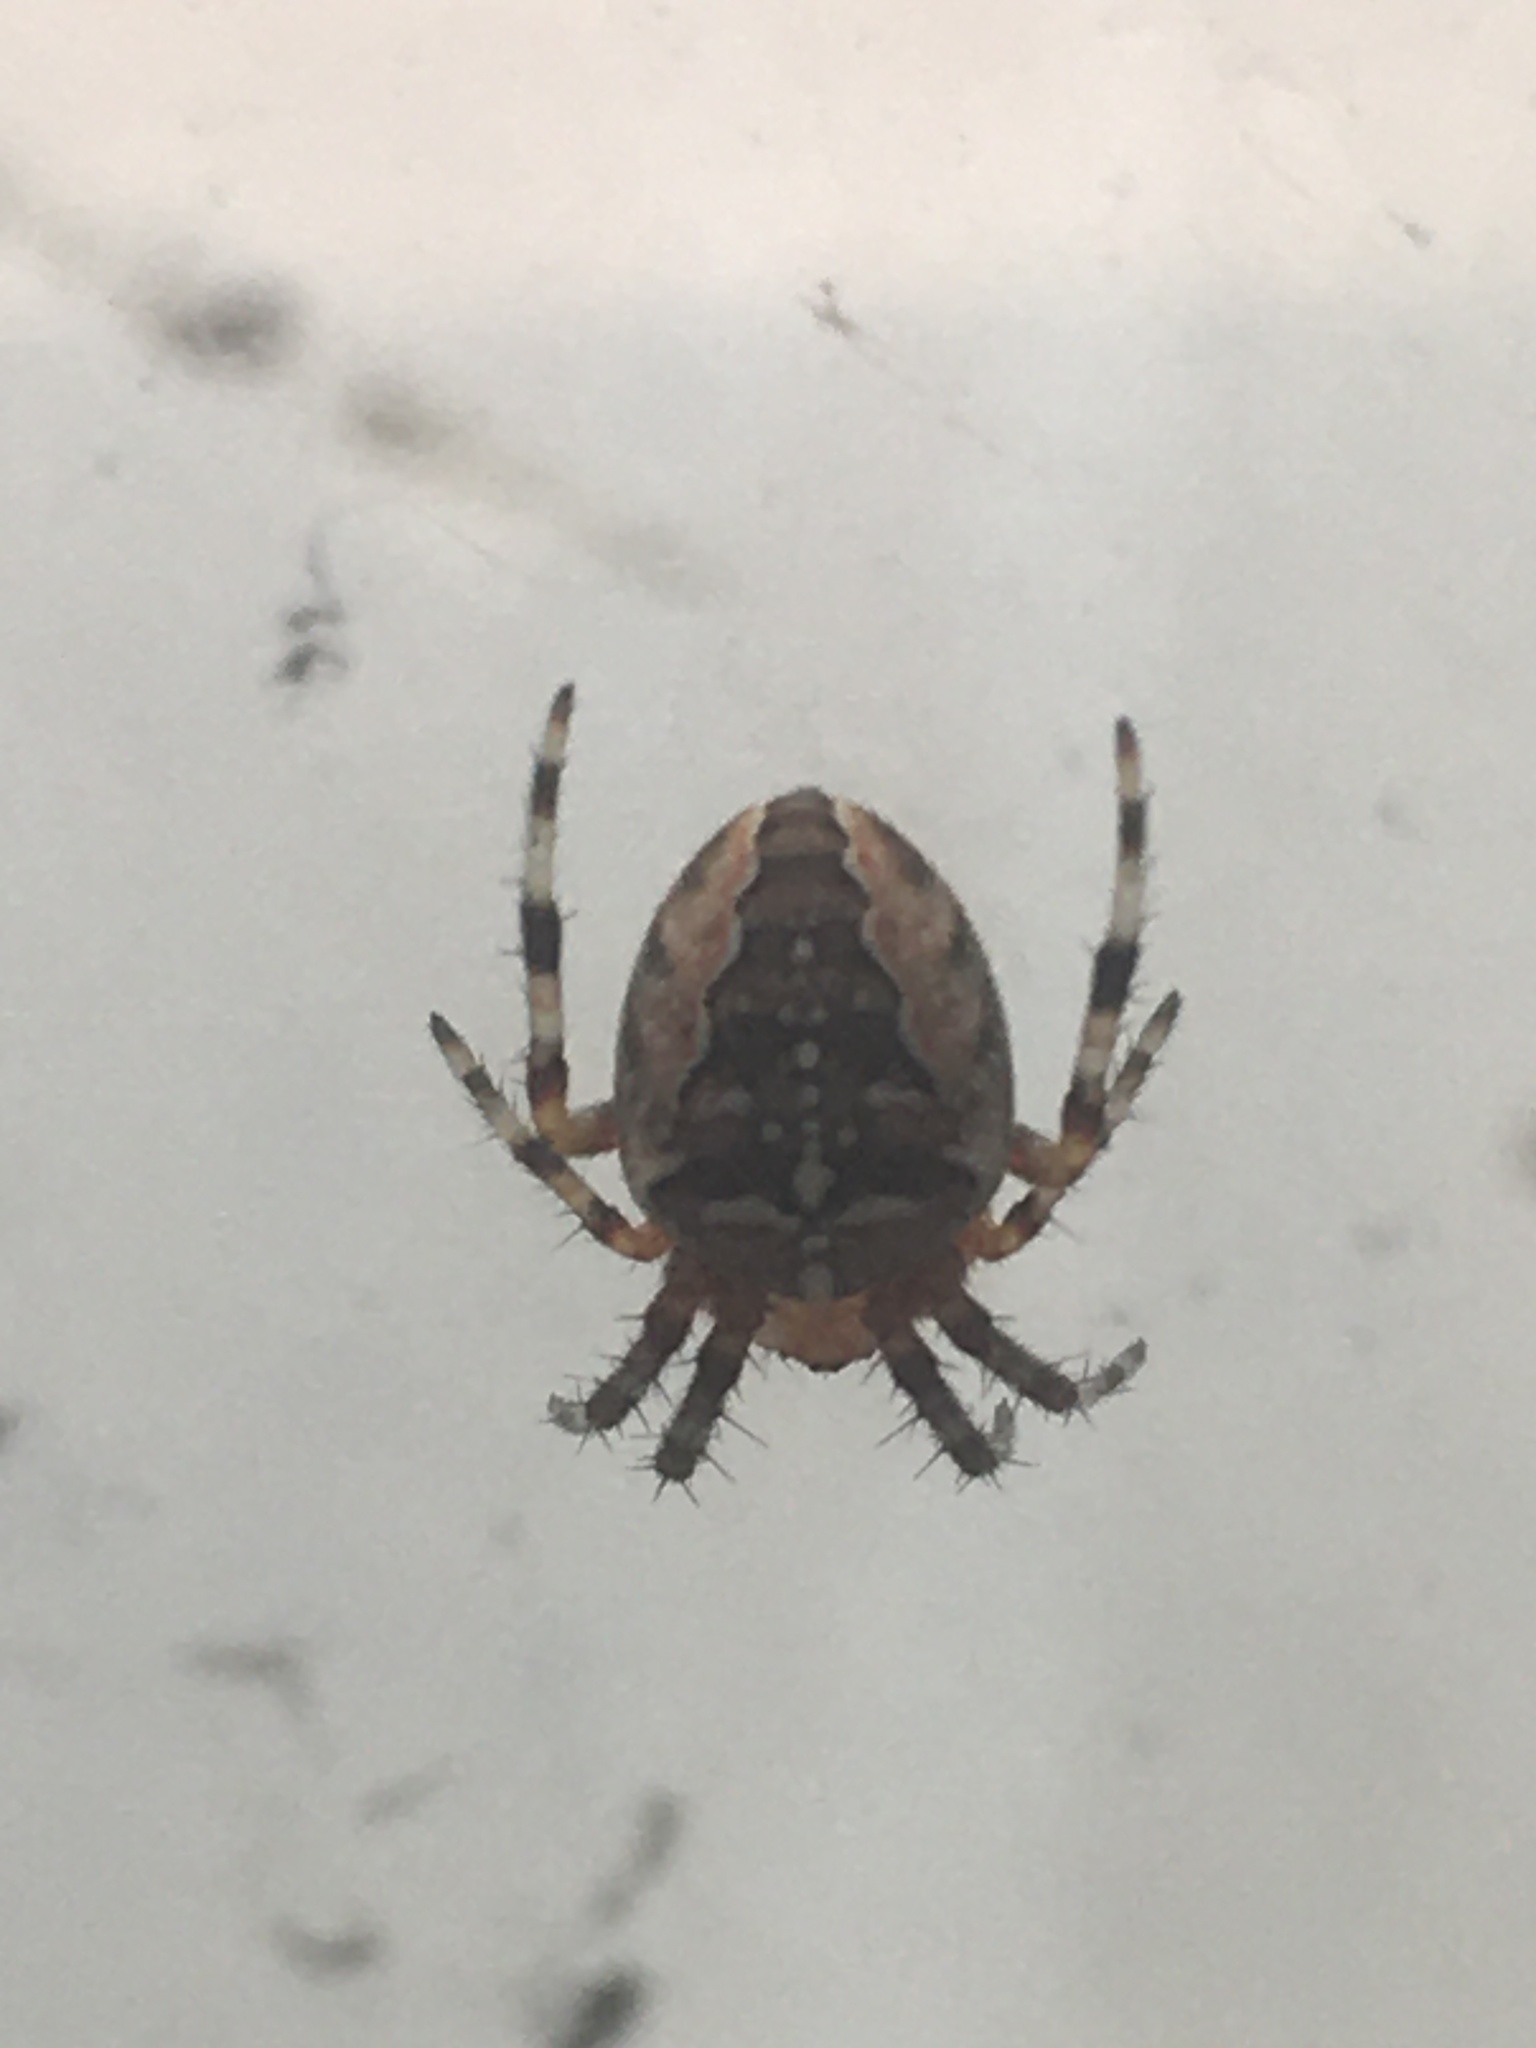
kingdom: Animalia
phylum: Arthropoda
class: Arachnida
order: Araneae
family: Araneidae
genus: Araneus
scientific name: Araneus diadematus
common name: Cross orbweaver
